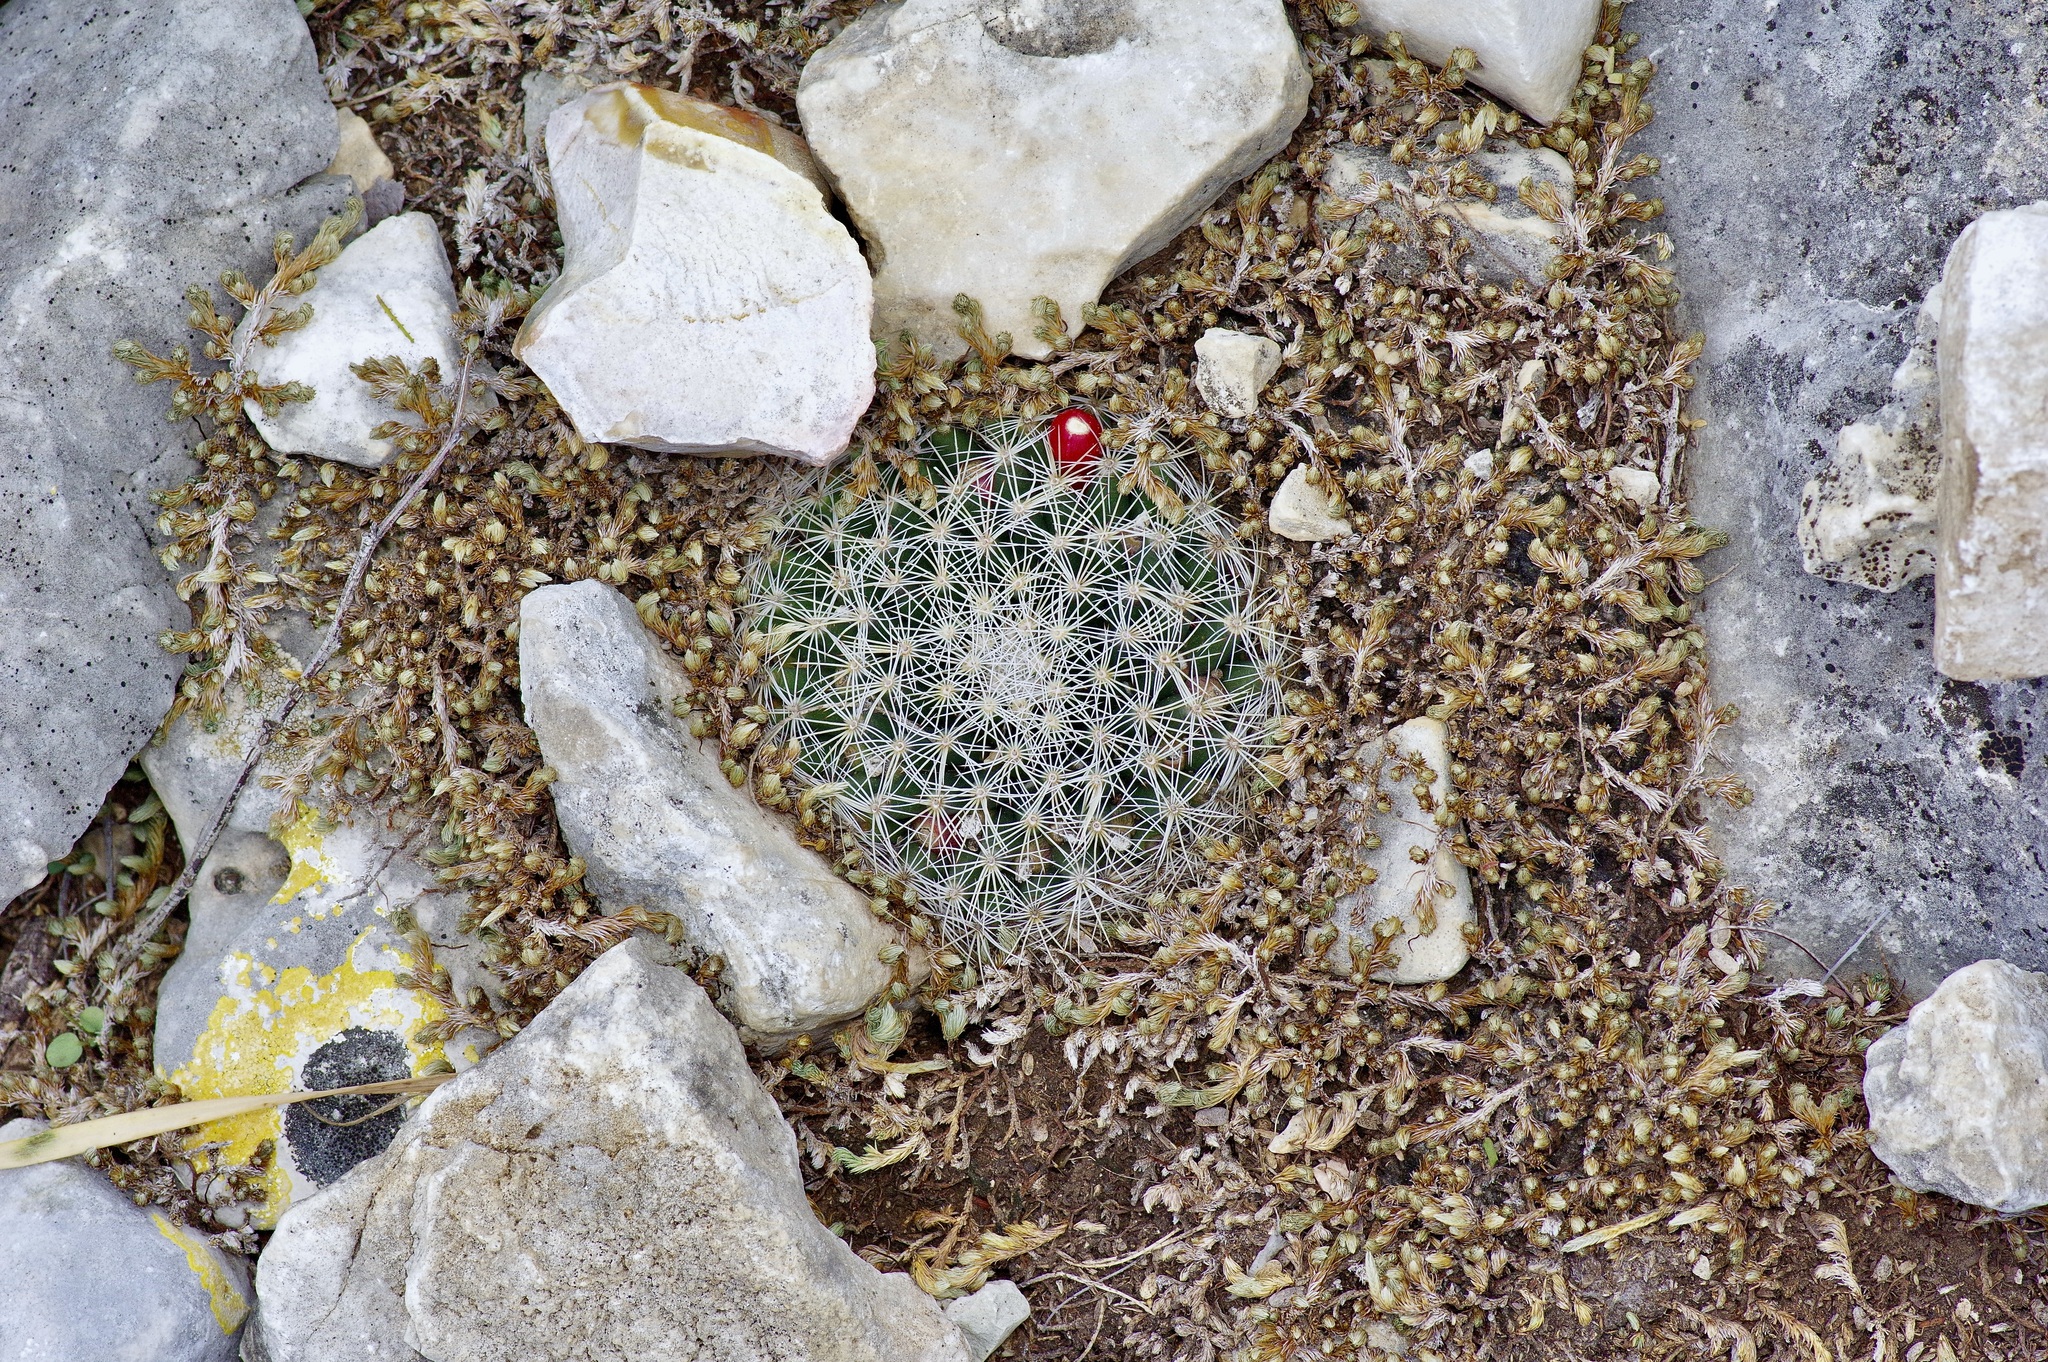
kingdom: Plantae
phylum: Tracheophyta
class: Magnoliopsida
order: Caryophyllales
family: Cactaceae
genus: Mammillaria
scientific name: Mammillaria heyderi
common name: Little nipple cactus
